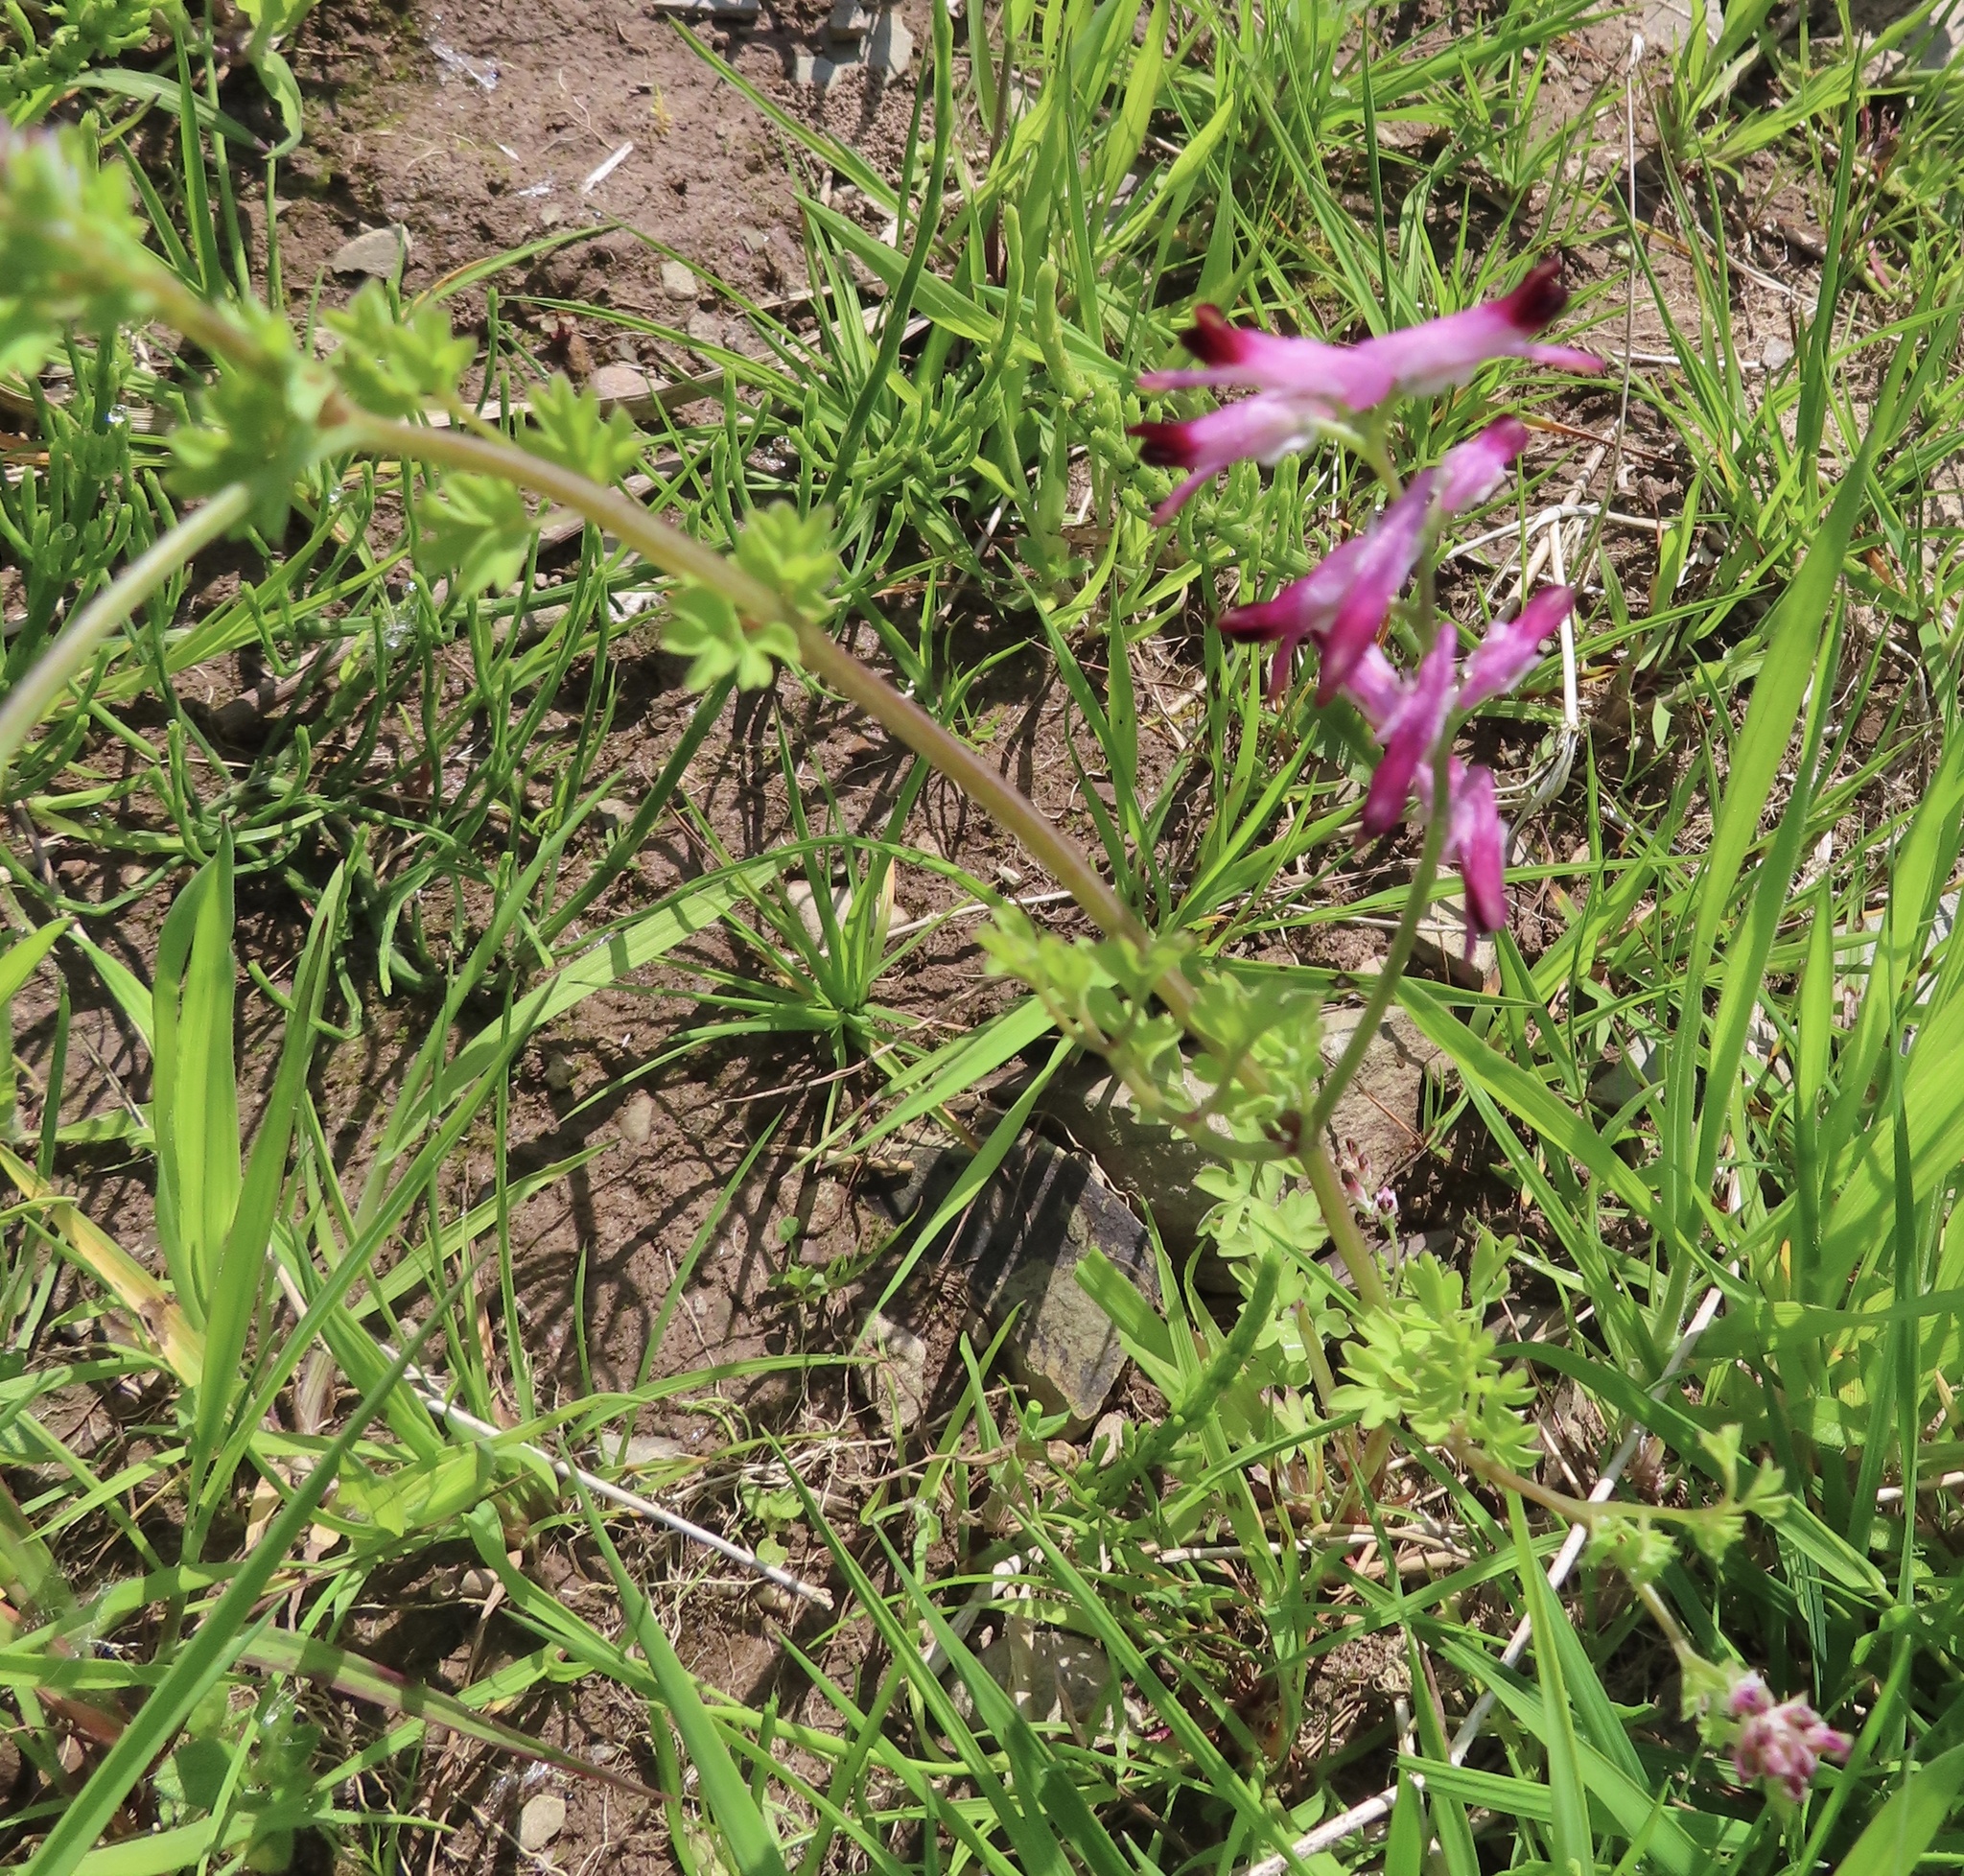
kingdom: Plantae
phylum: Tracheophyta
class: Magnoliopsida
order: Ranunculales
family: Papaveraceae
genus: Fumaria
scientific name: Fumaria muralis
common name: Common ramping-fumitory
